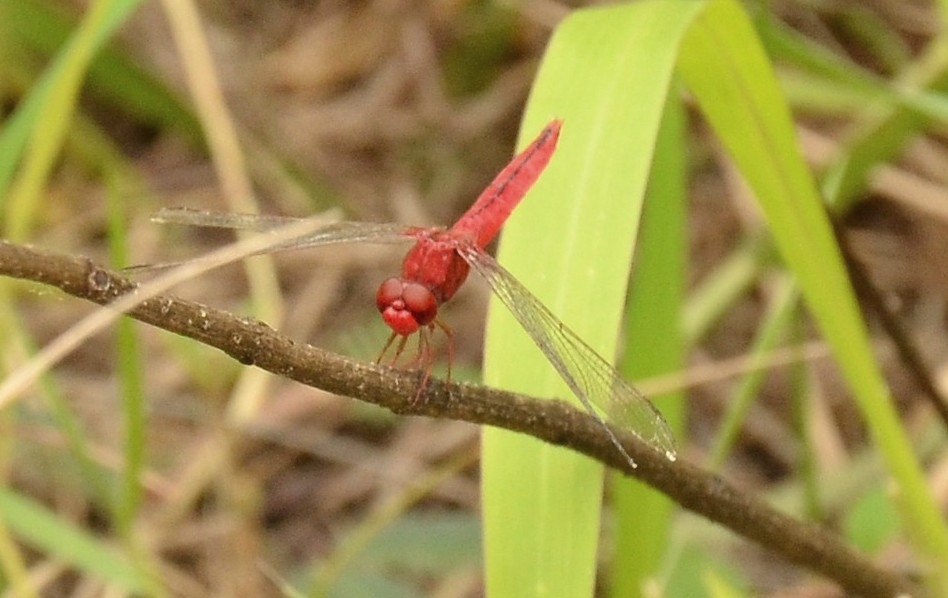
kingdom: Animalia
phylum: Arthropoda
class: Insecta
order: Odonata
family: Libellulidae
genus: Crocothemis
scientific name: Crocothemis servilia
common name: Scarlet skimmer
